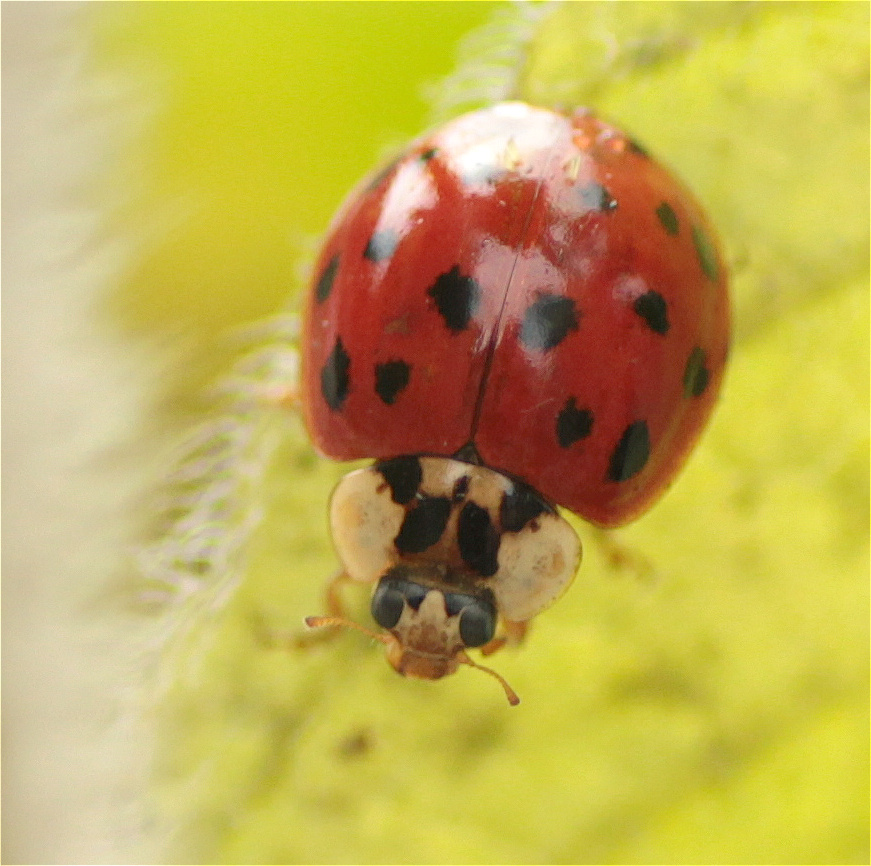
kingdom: Animalia
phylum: Arthropoda
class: Insecta
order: Coleoptera
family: Coccinellidae
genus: Harmonia
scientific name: Harmonia axyridis
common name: Harlequin ladybird
